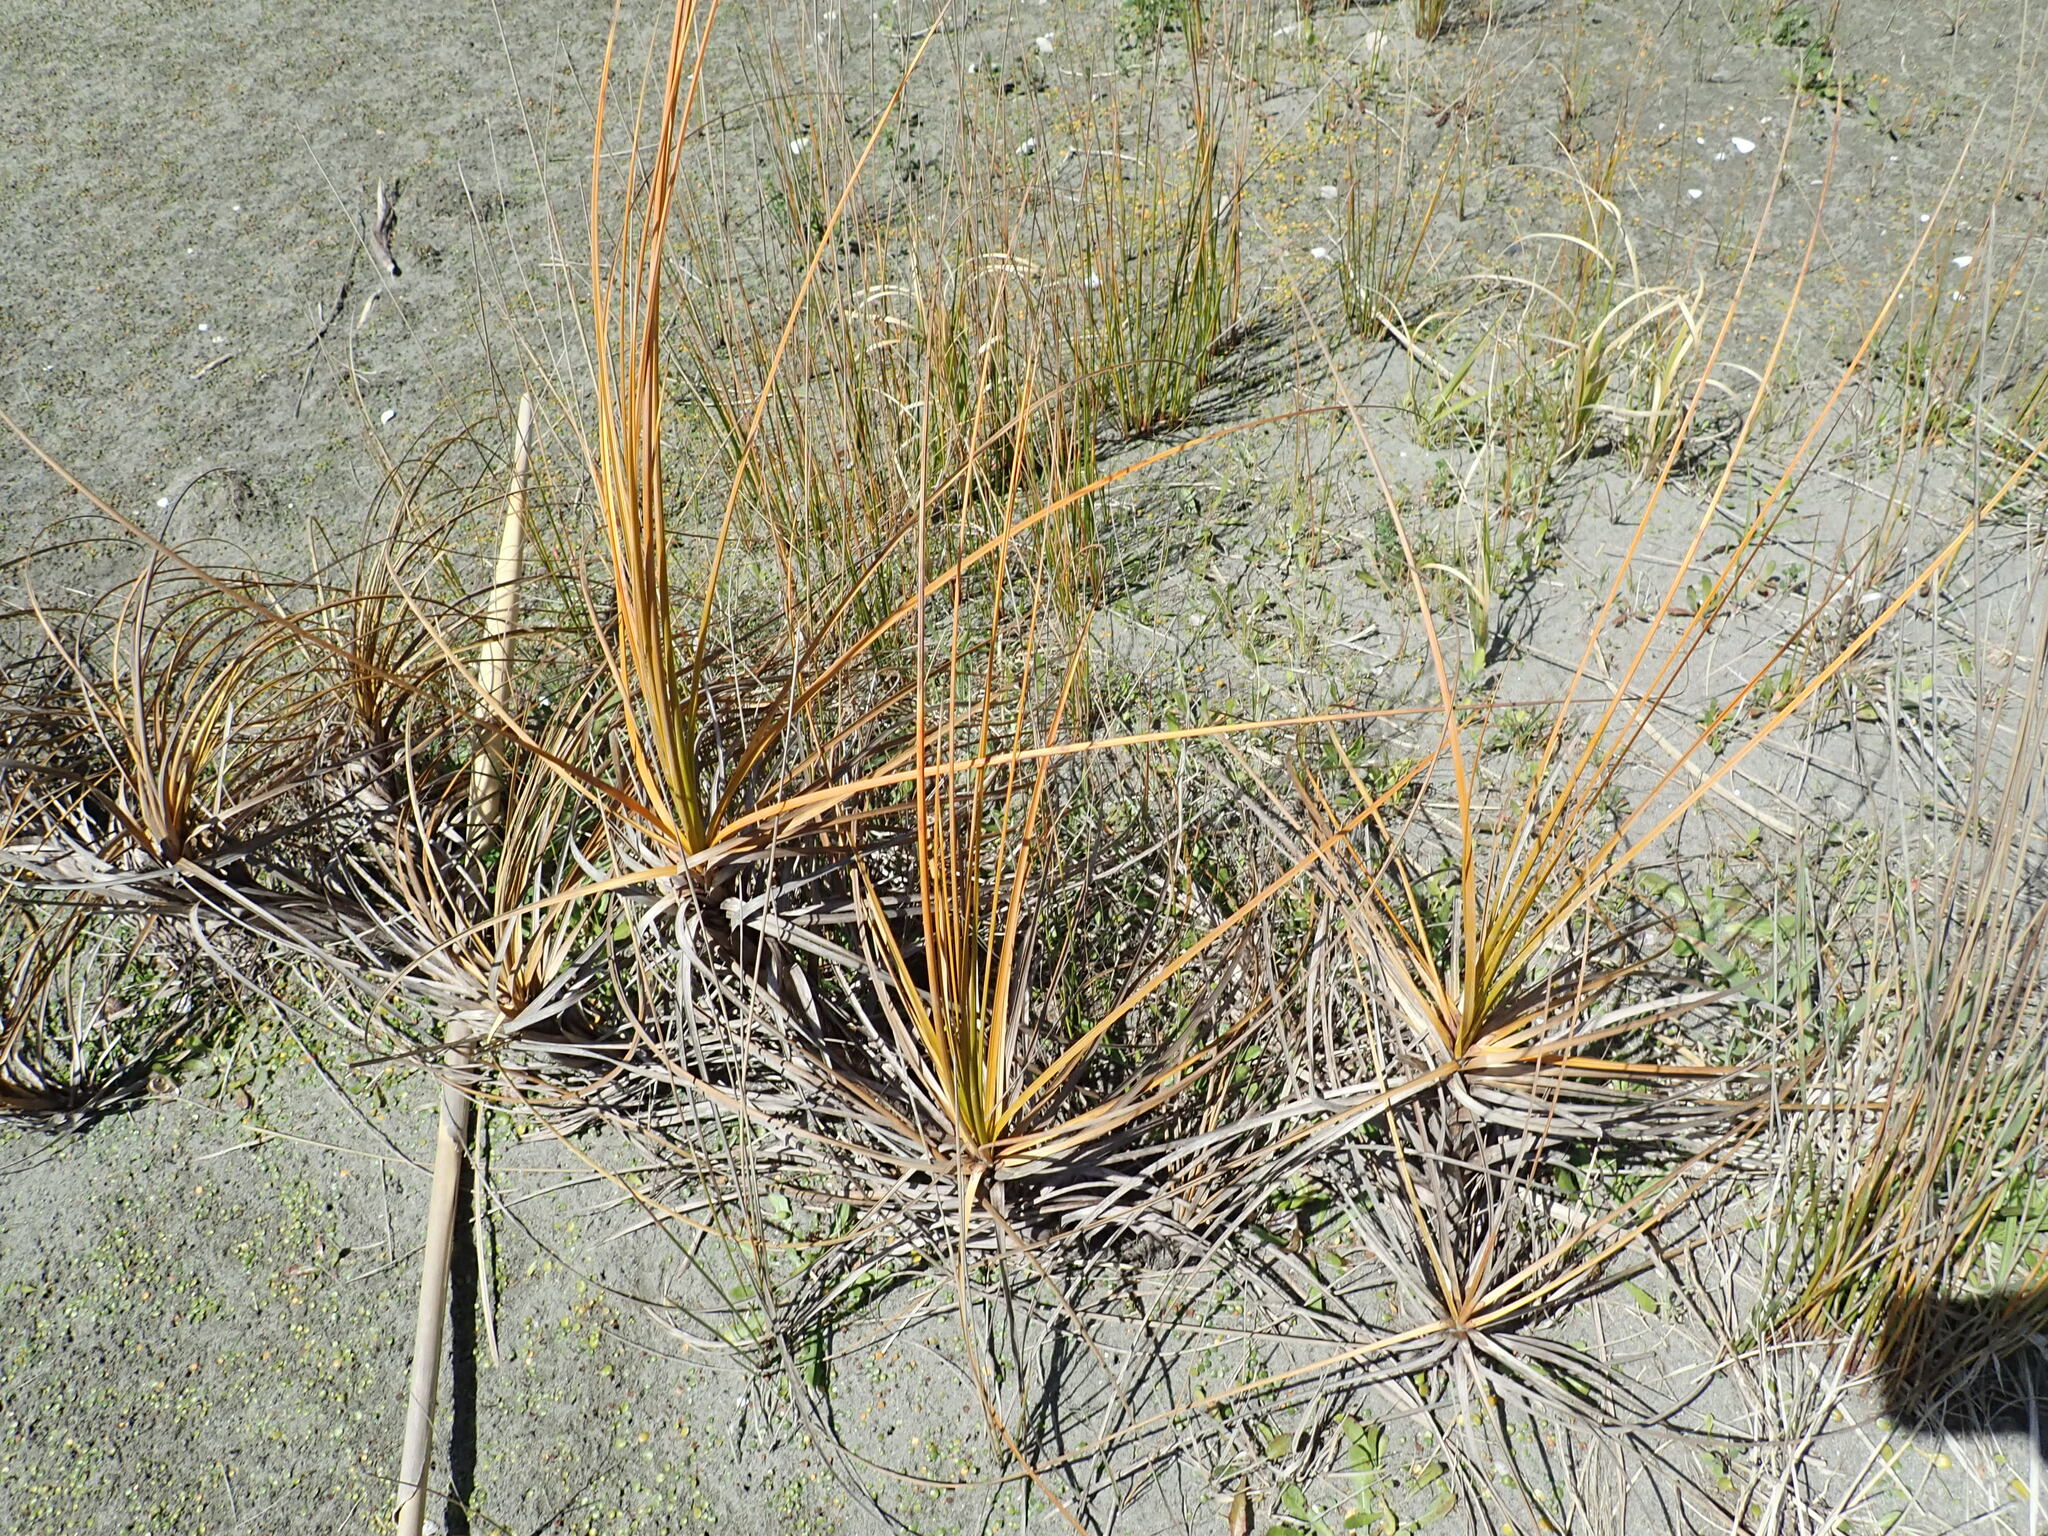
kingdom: Plantae
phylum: Tracheophyta
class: Liliopsida
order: Poales
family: Cyperaceae
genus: Ficinia
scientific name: Ficinia spiralis
